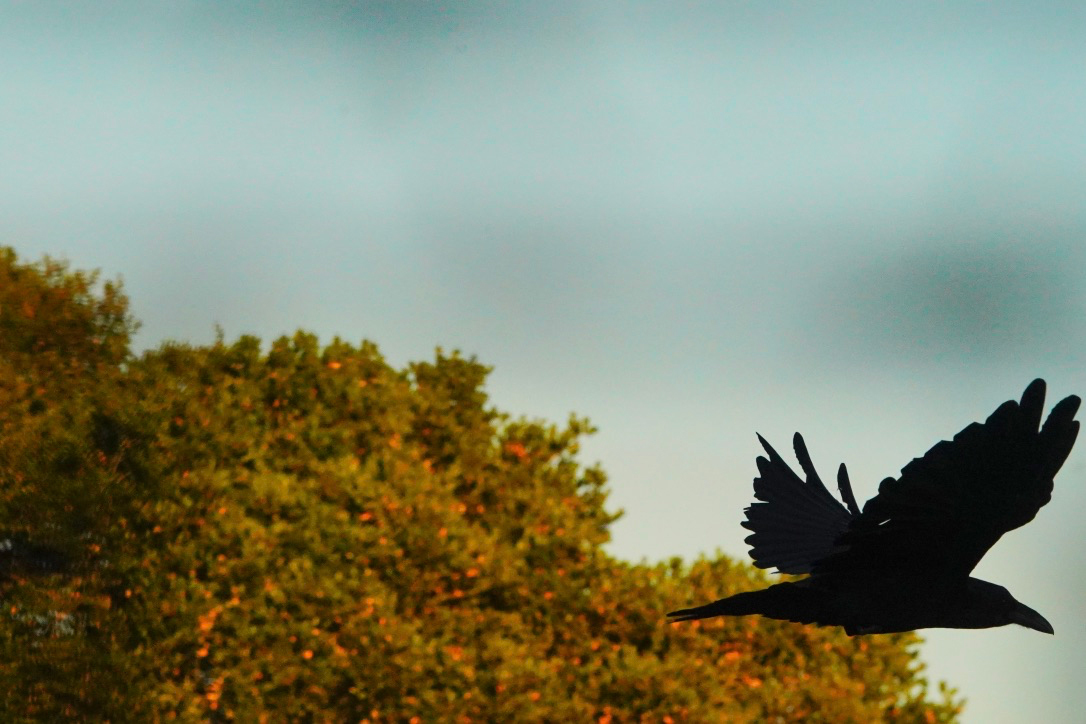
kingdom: Animalia
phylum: Chordata
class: Aves
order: Passeriformes
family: Corvidae
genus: Corvus
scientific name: Corvus corax
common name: Common raven
